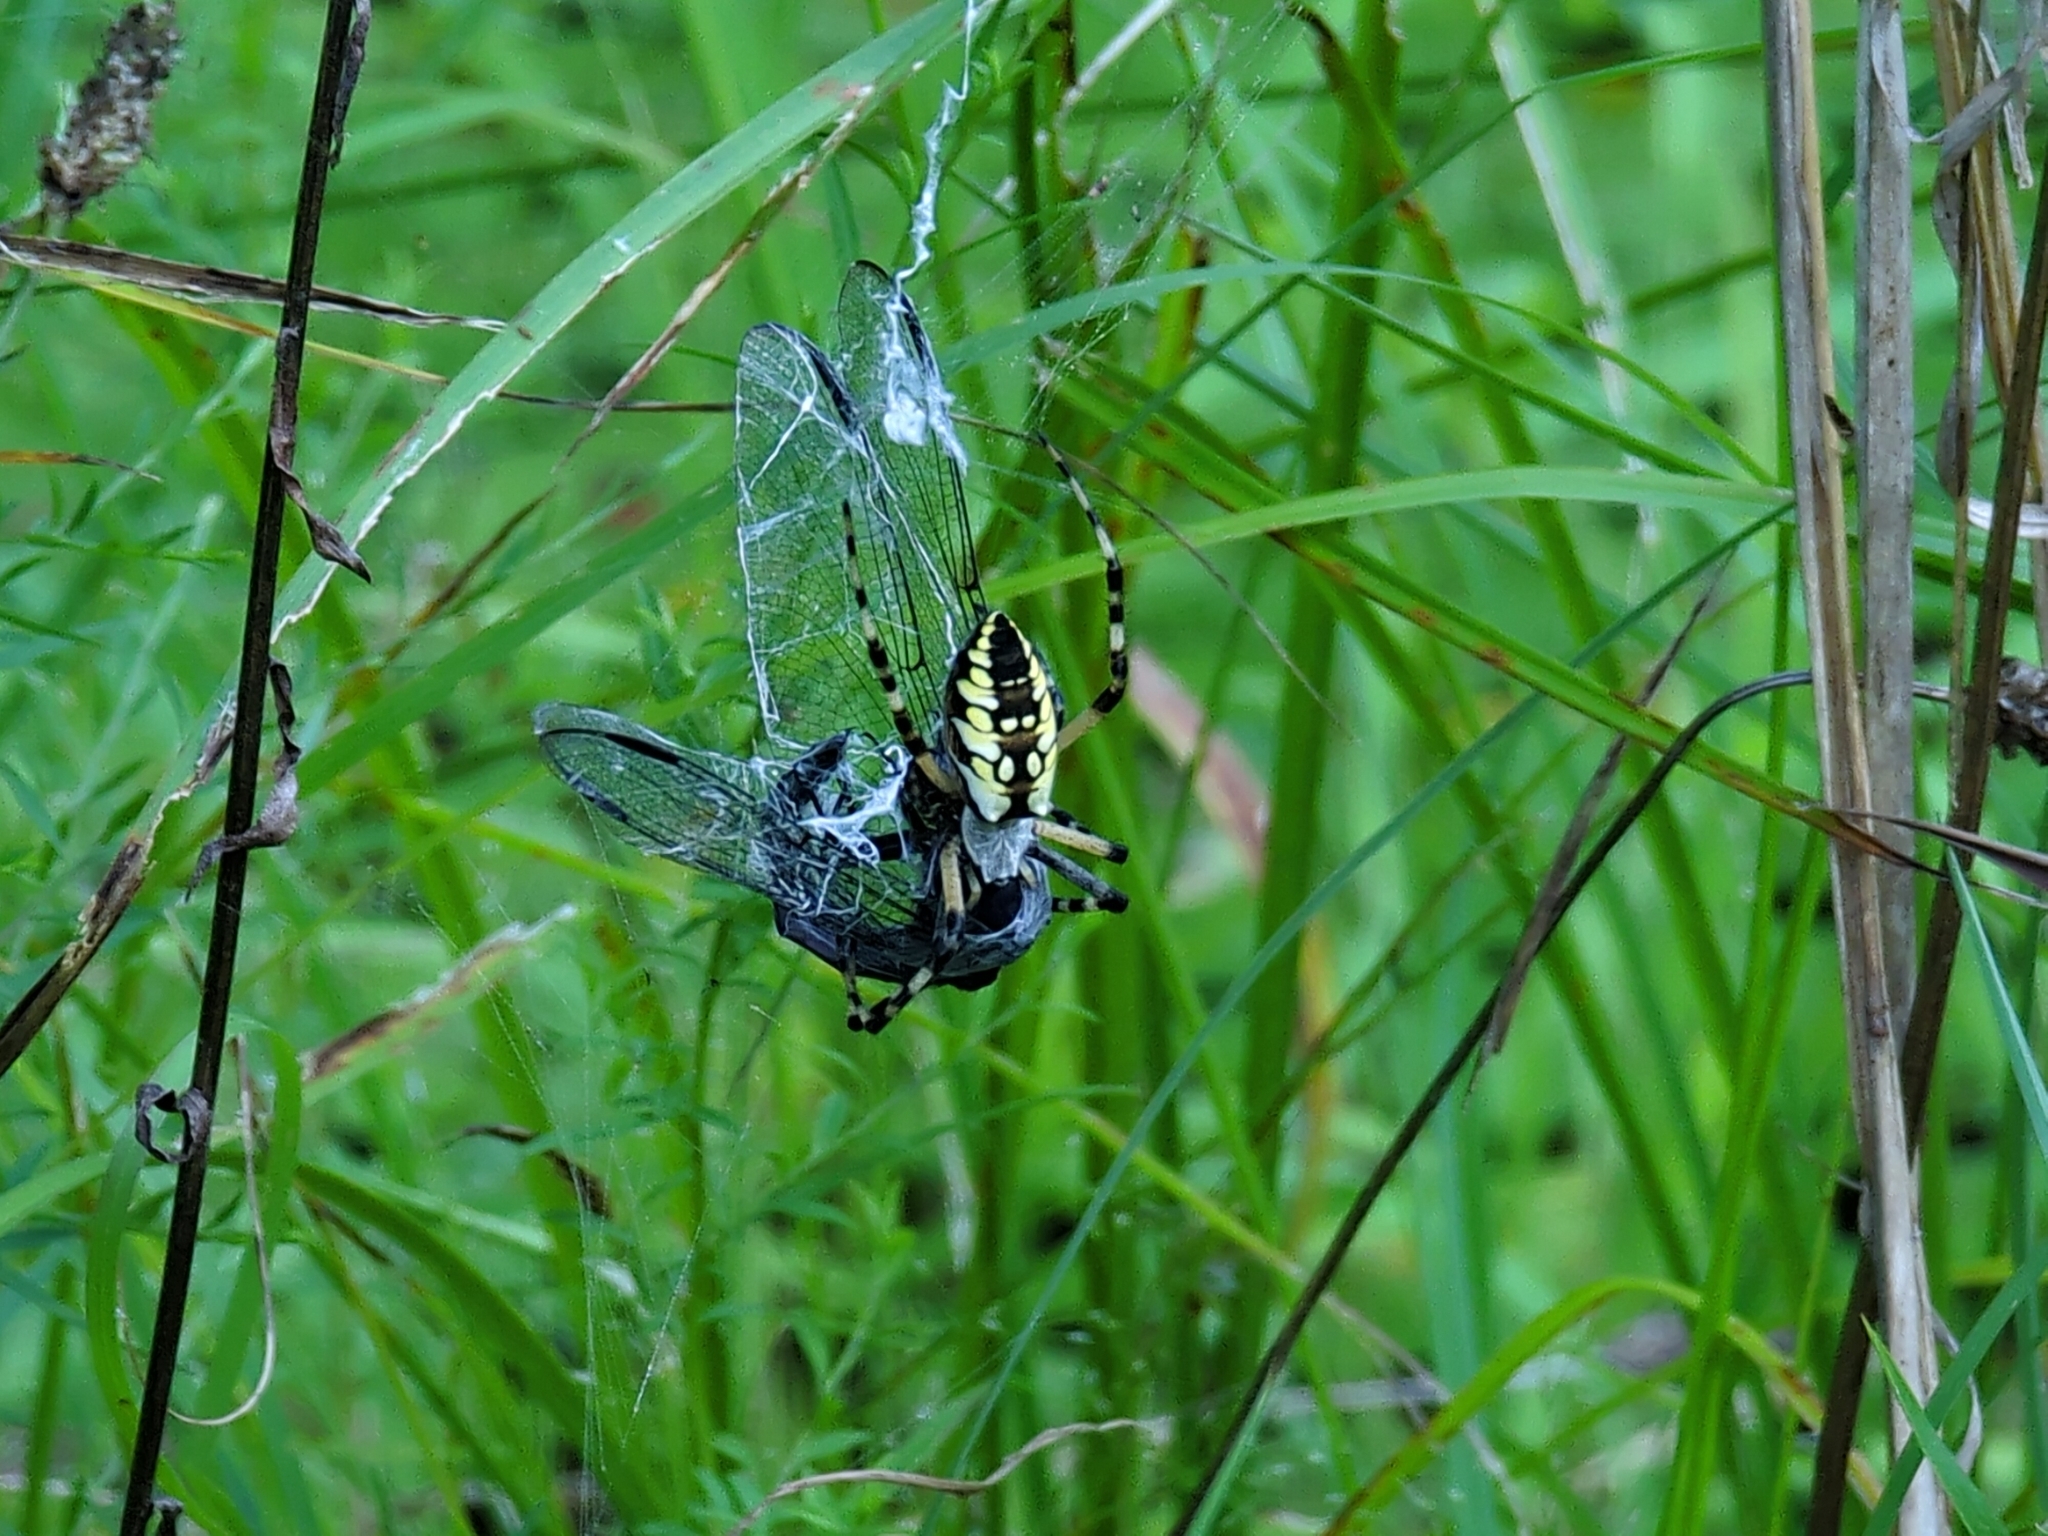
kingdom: Animalia
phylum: Arthropoda
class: Arachnida
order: Araneae
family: Araneidae
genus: Argiope
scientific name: Argiope aurantia
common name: Orb weavers
